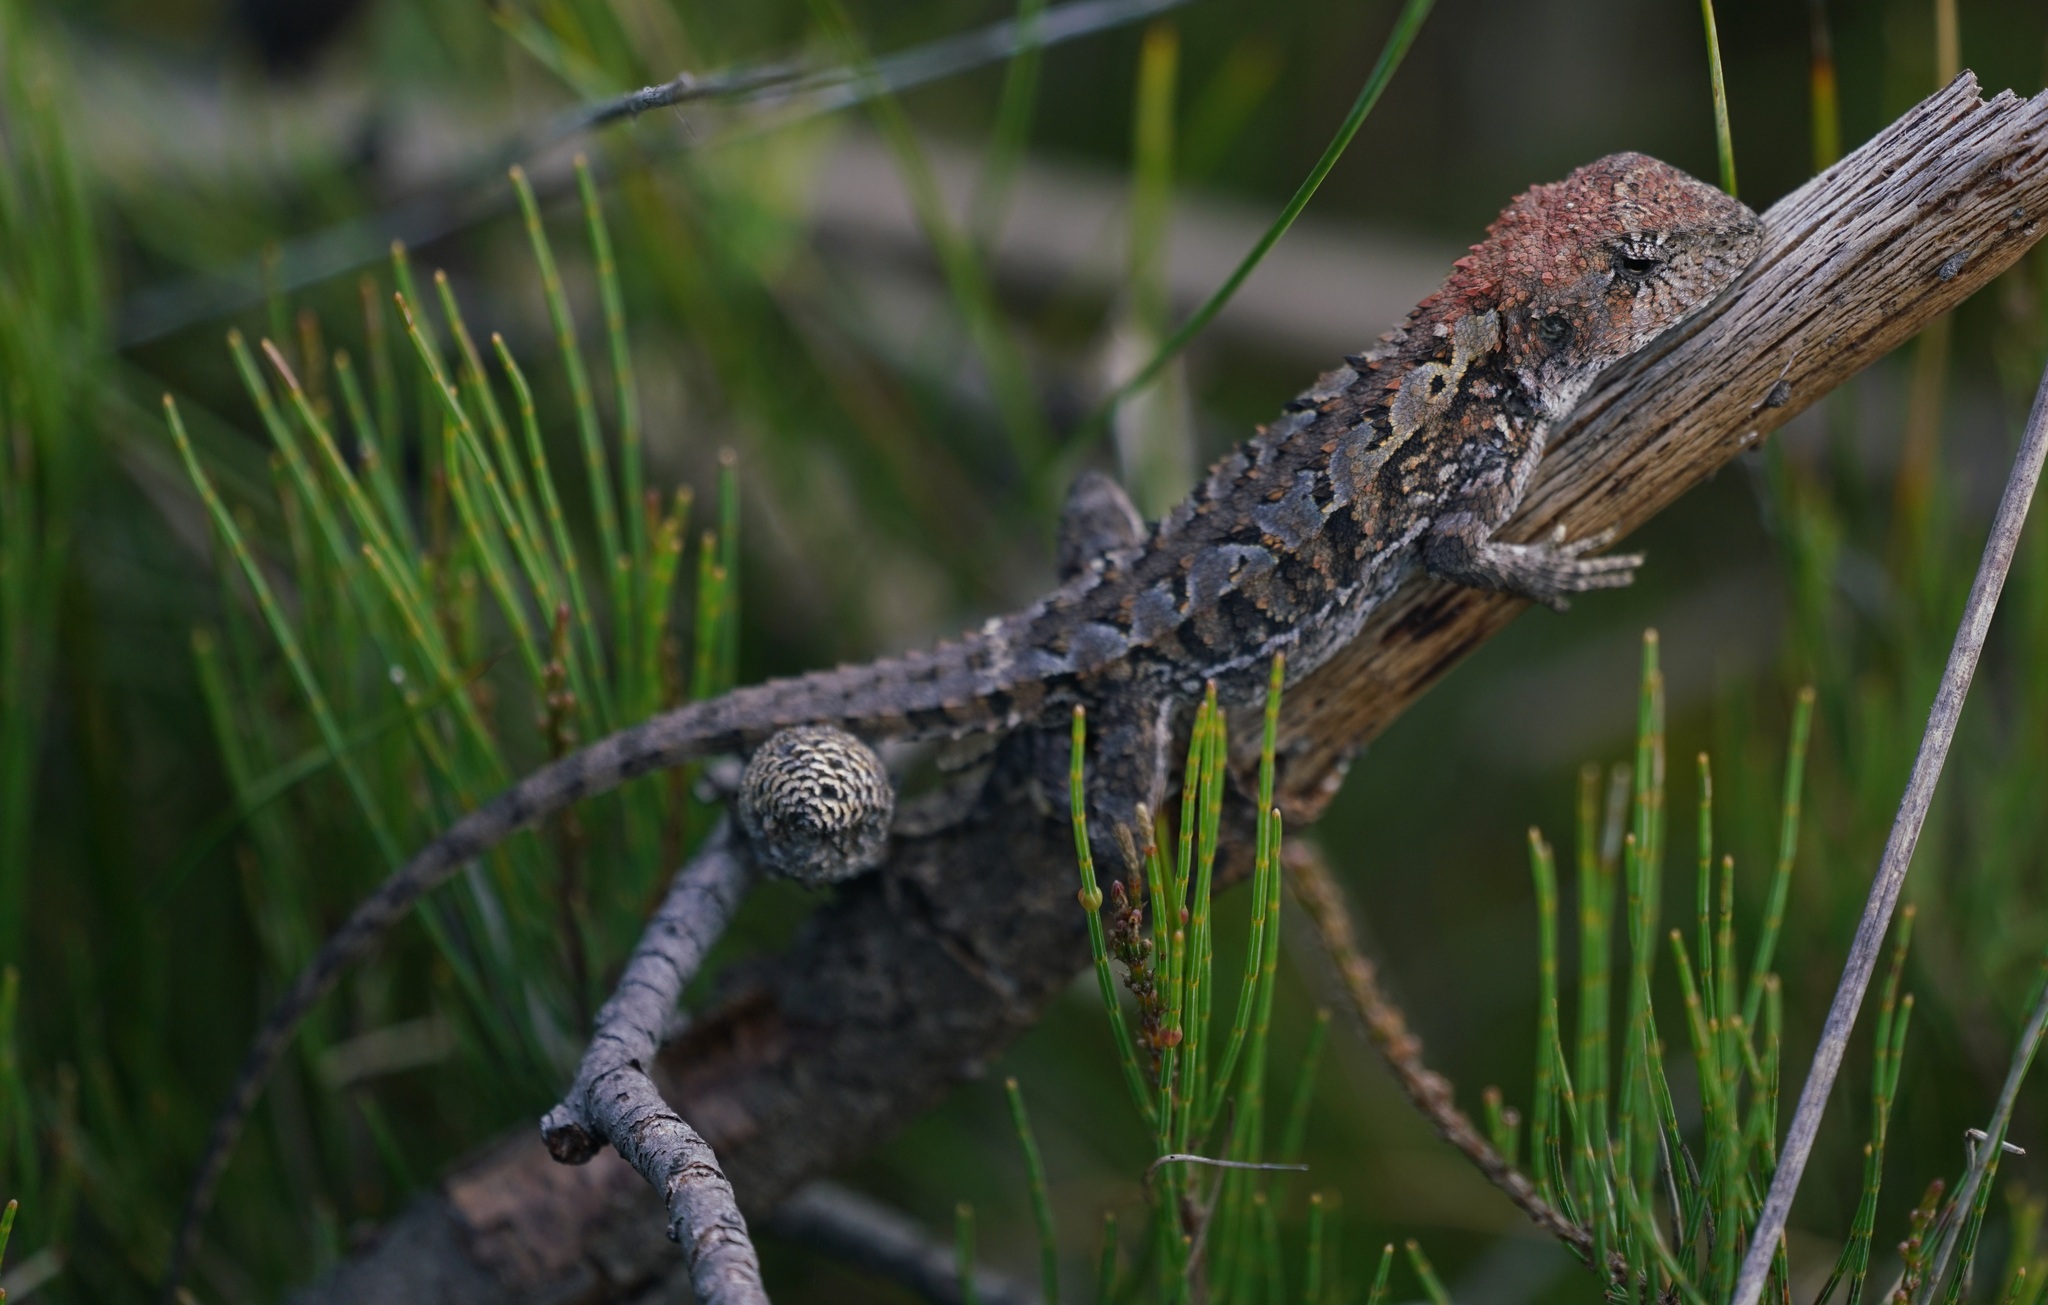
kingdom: Animalia
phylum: Chordata
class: Squamata
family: Agamidae
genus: Rankinia
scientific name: Rankinia diemensis
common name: Mountain dragon
